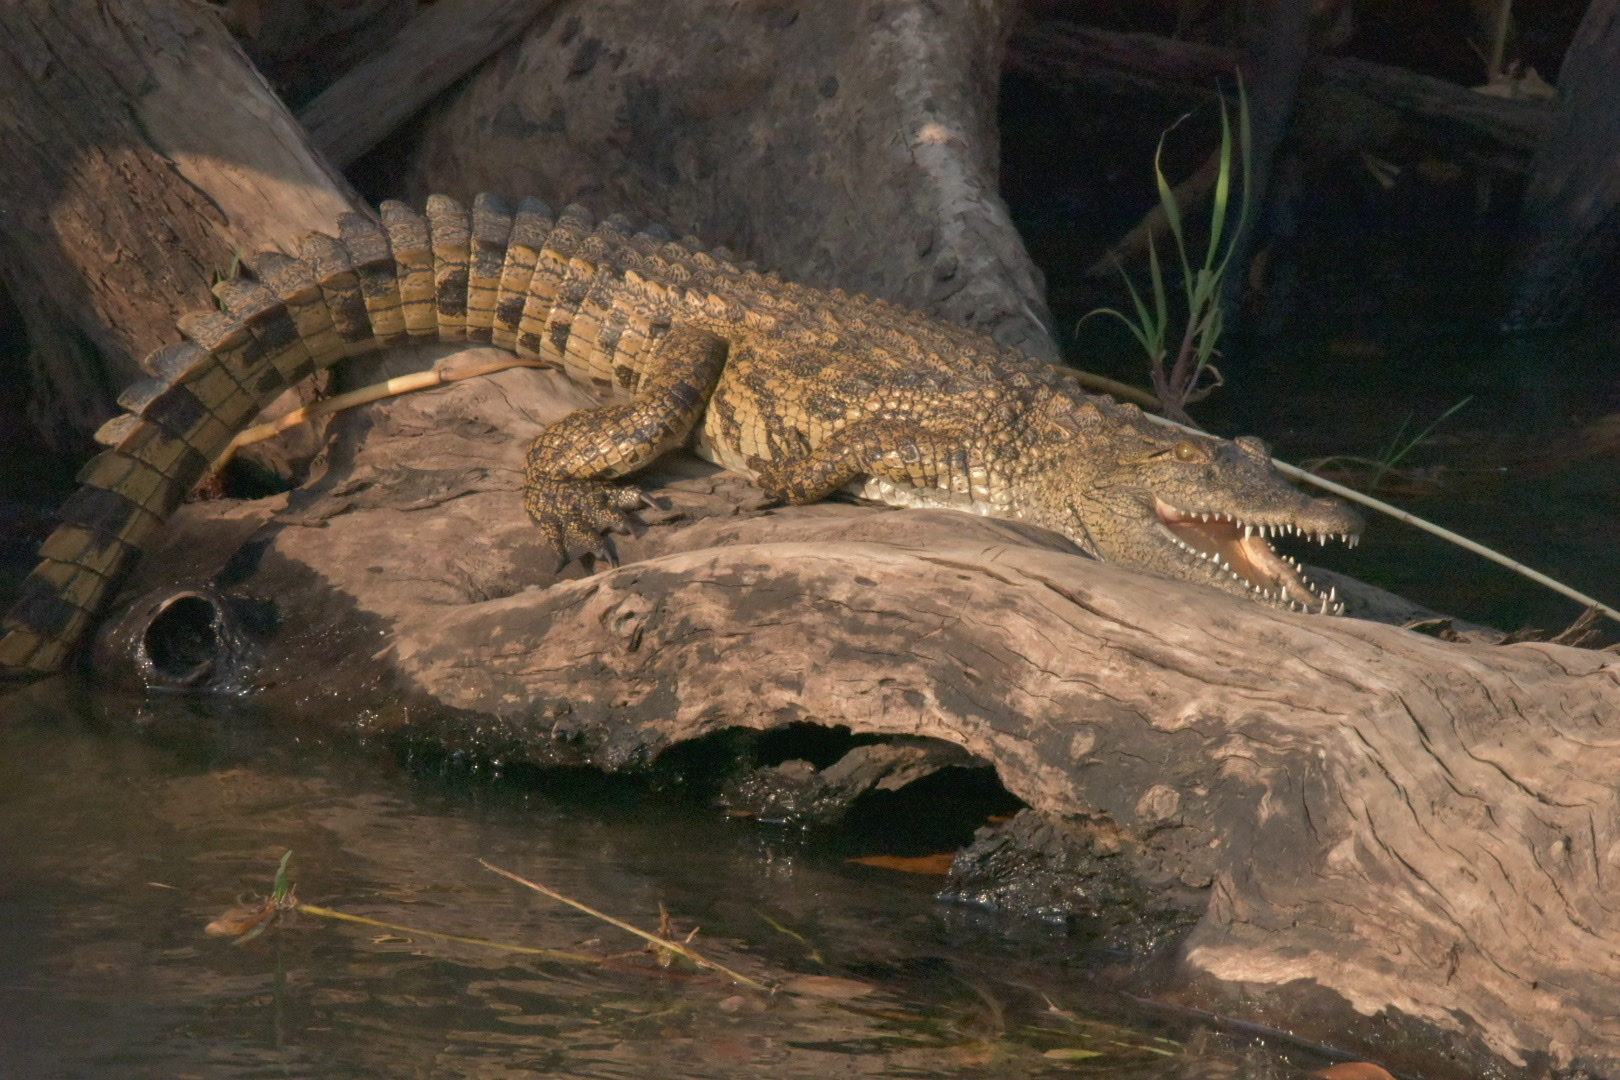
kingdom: Animalia
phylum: Chordata
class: Crocodylia
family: Crocodylidae
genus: Crocodylus
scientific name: Crocodylus niloticus
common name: Nile crocodile
